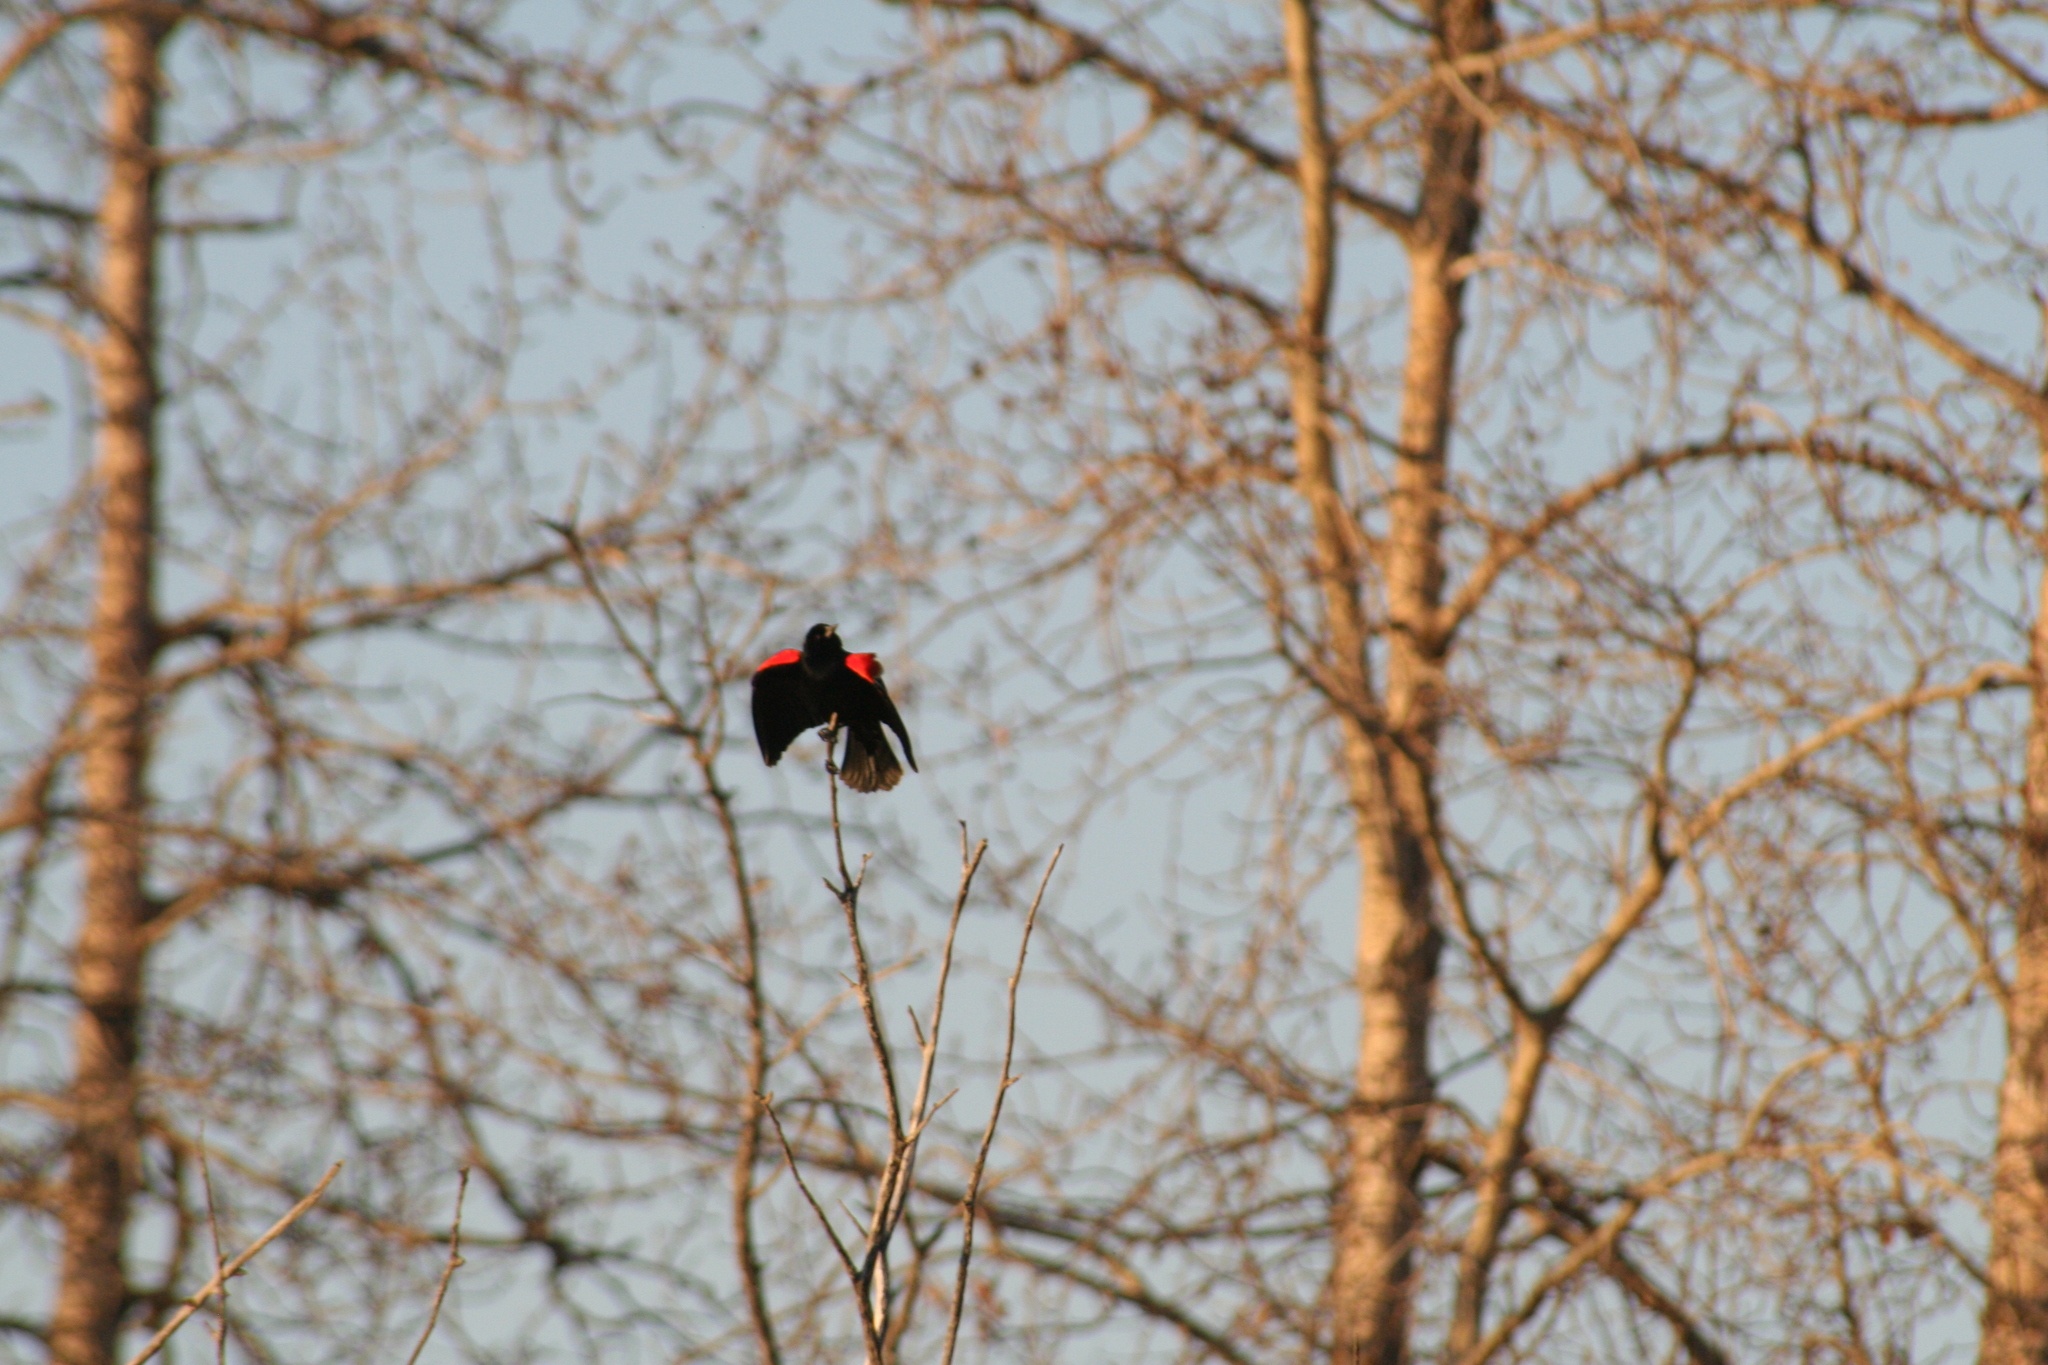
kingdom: Animalia
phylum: Chordata
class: Aves
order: Passeriformes
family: Icteridae
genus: Agelaius
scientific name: Agelaius phoeniceus
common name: Red-winged blackbird
